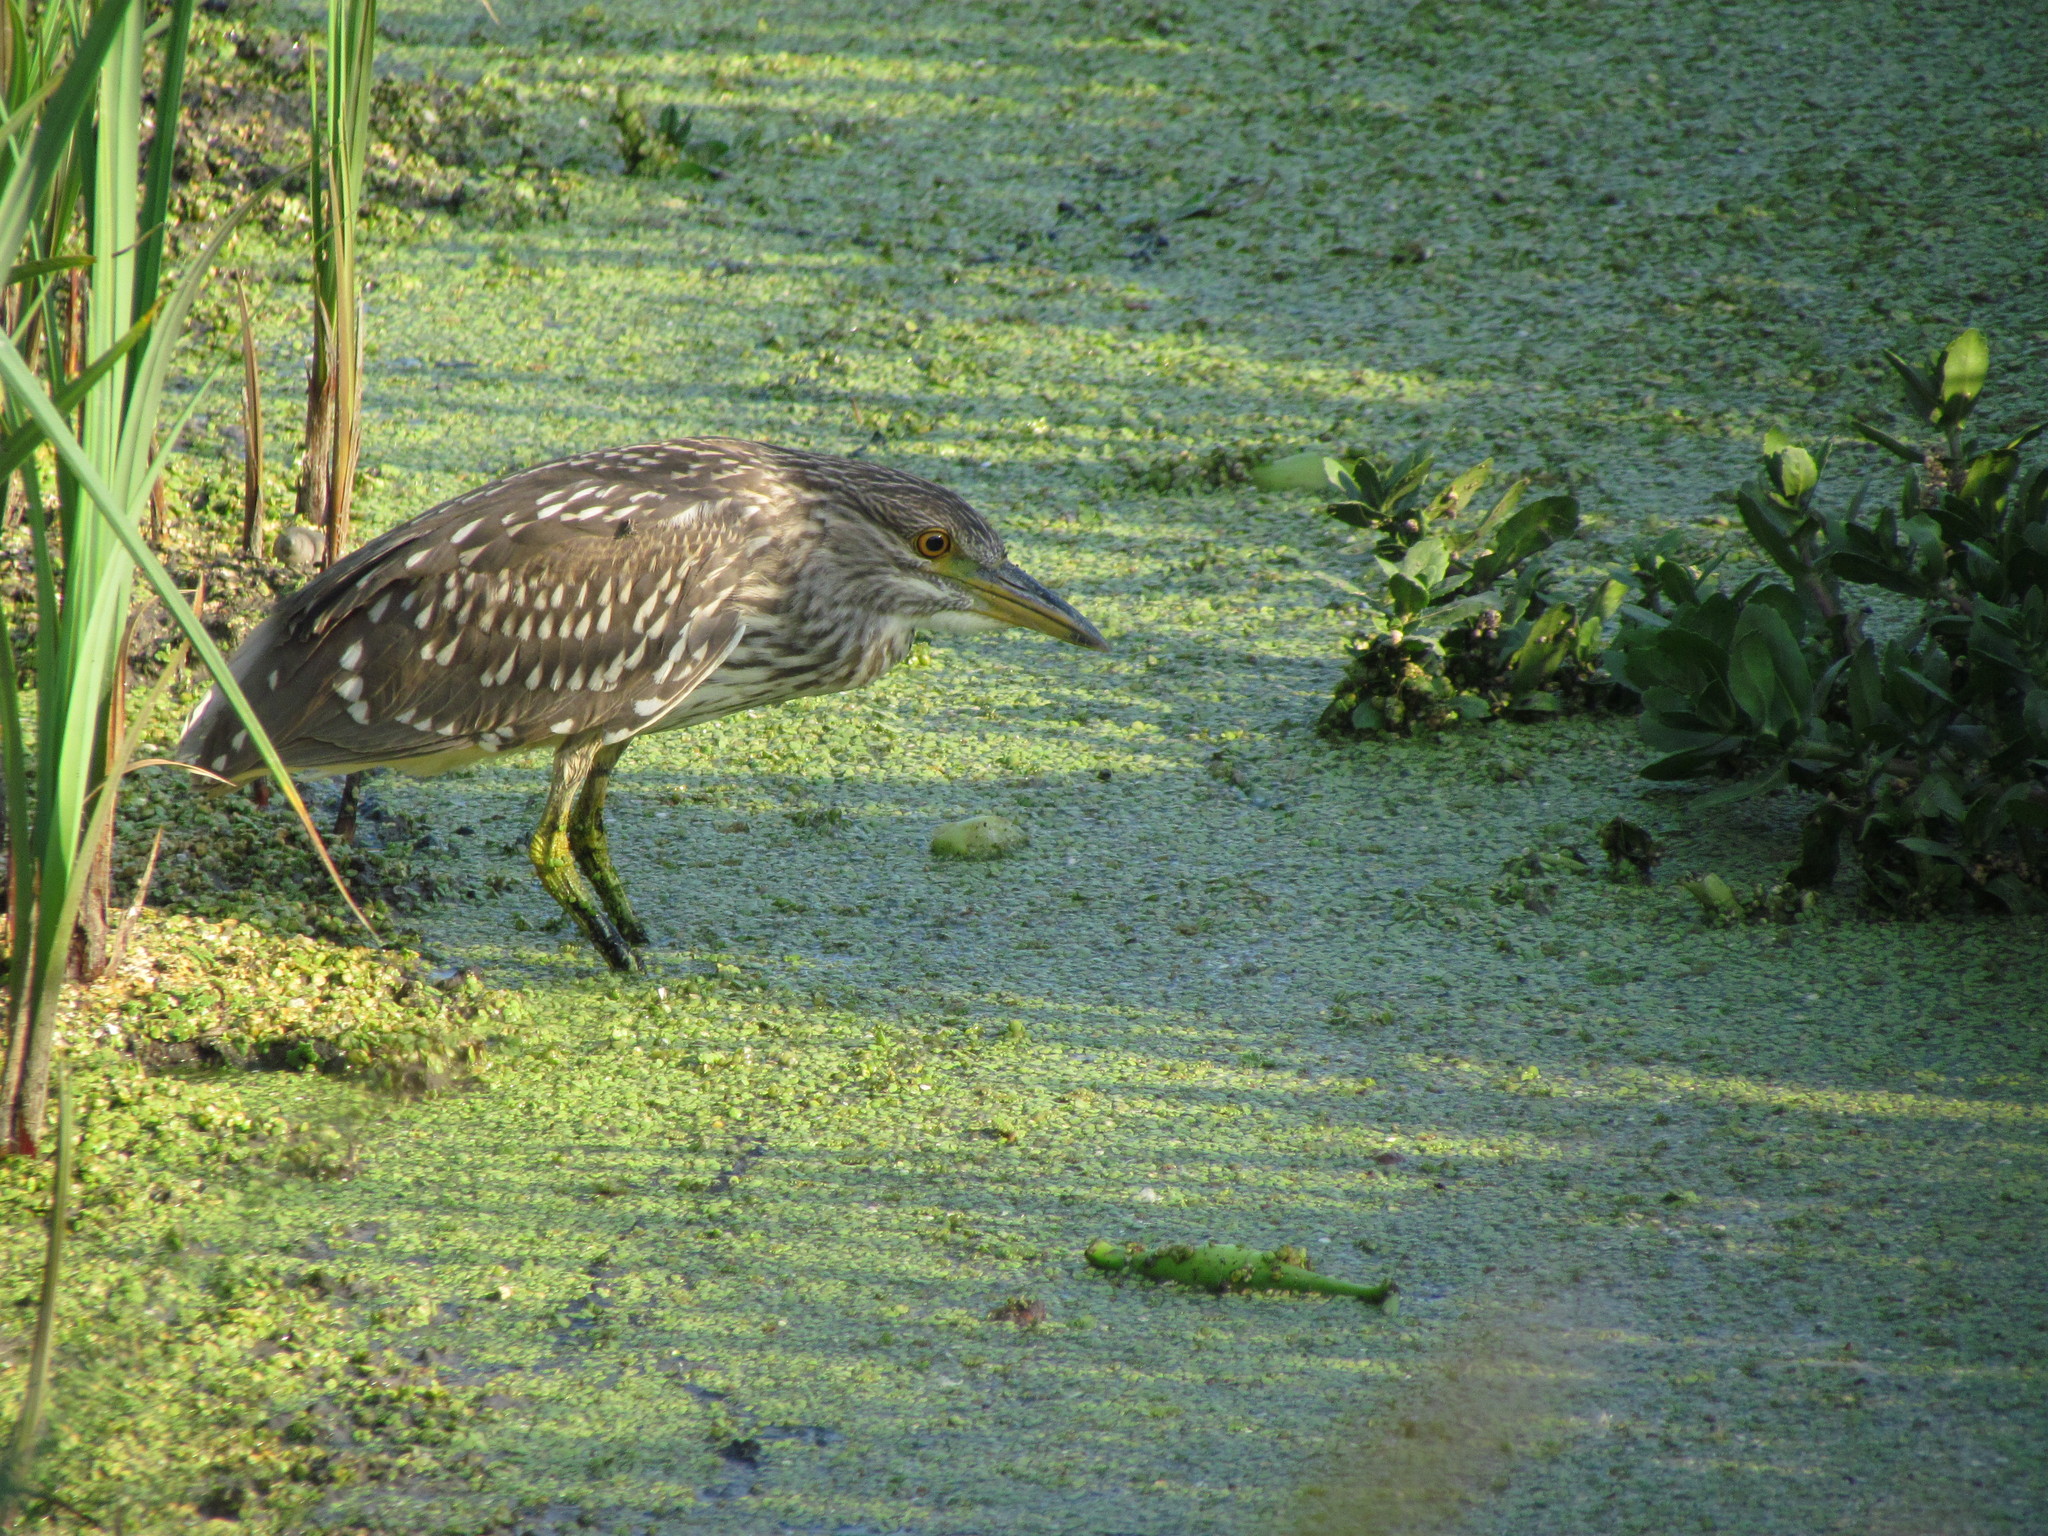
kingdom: Animalia
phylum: Chordata
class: Aves
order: Pelecaniformes
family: Ardeidae
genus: Nycticorax
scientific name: Nycticorax nycticorax
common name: Black-crowned night heron
